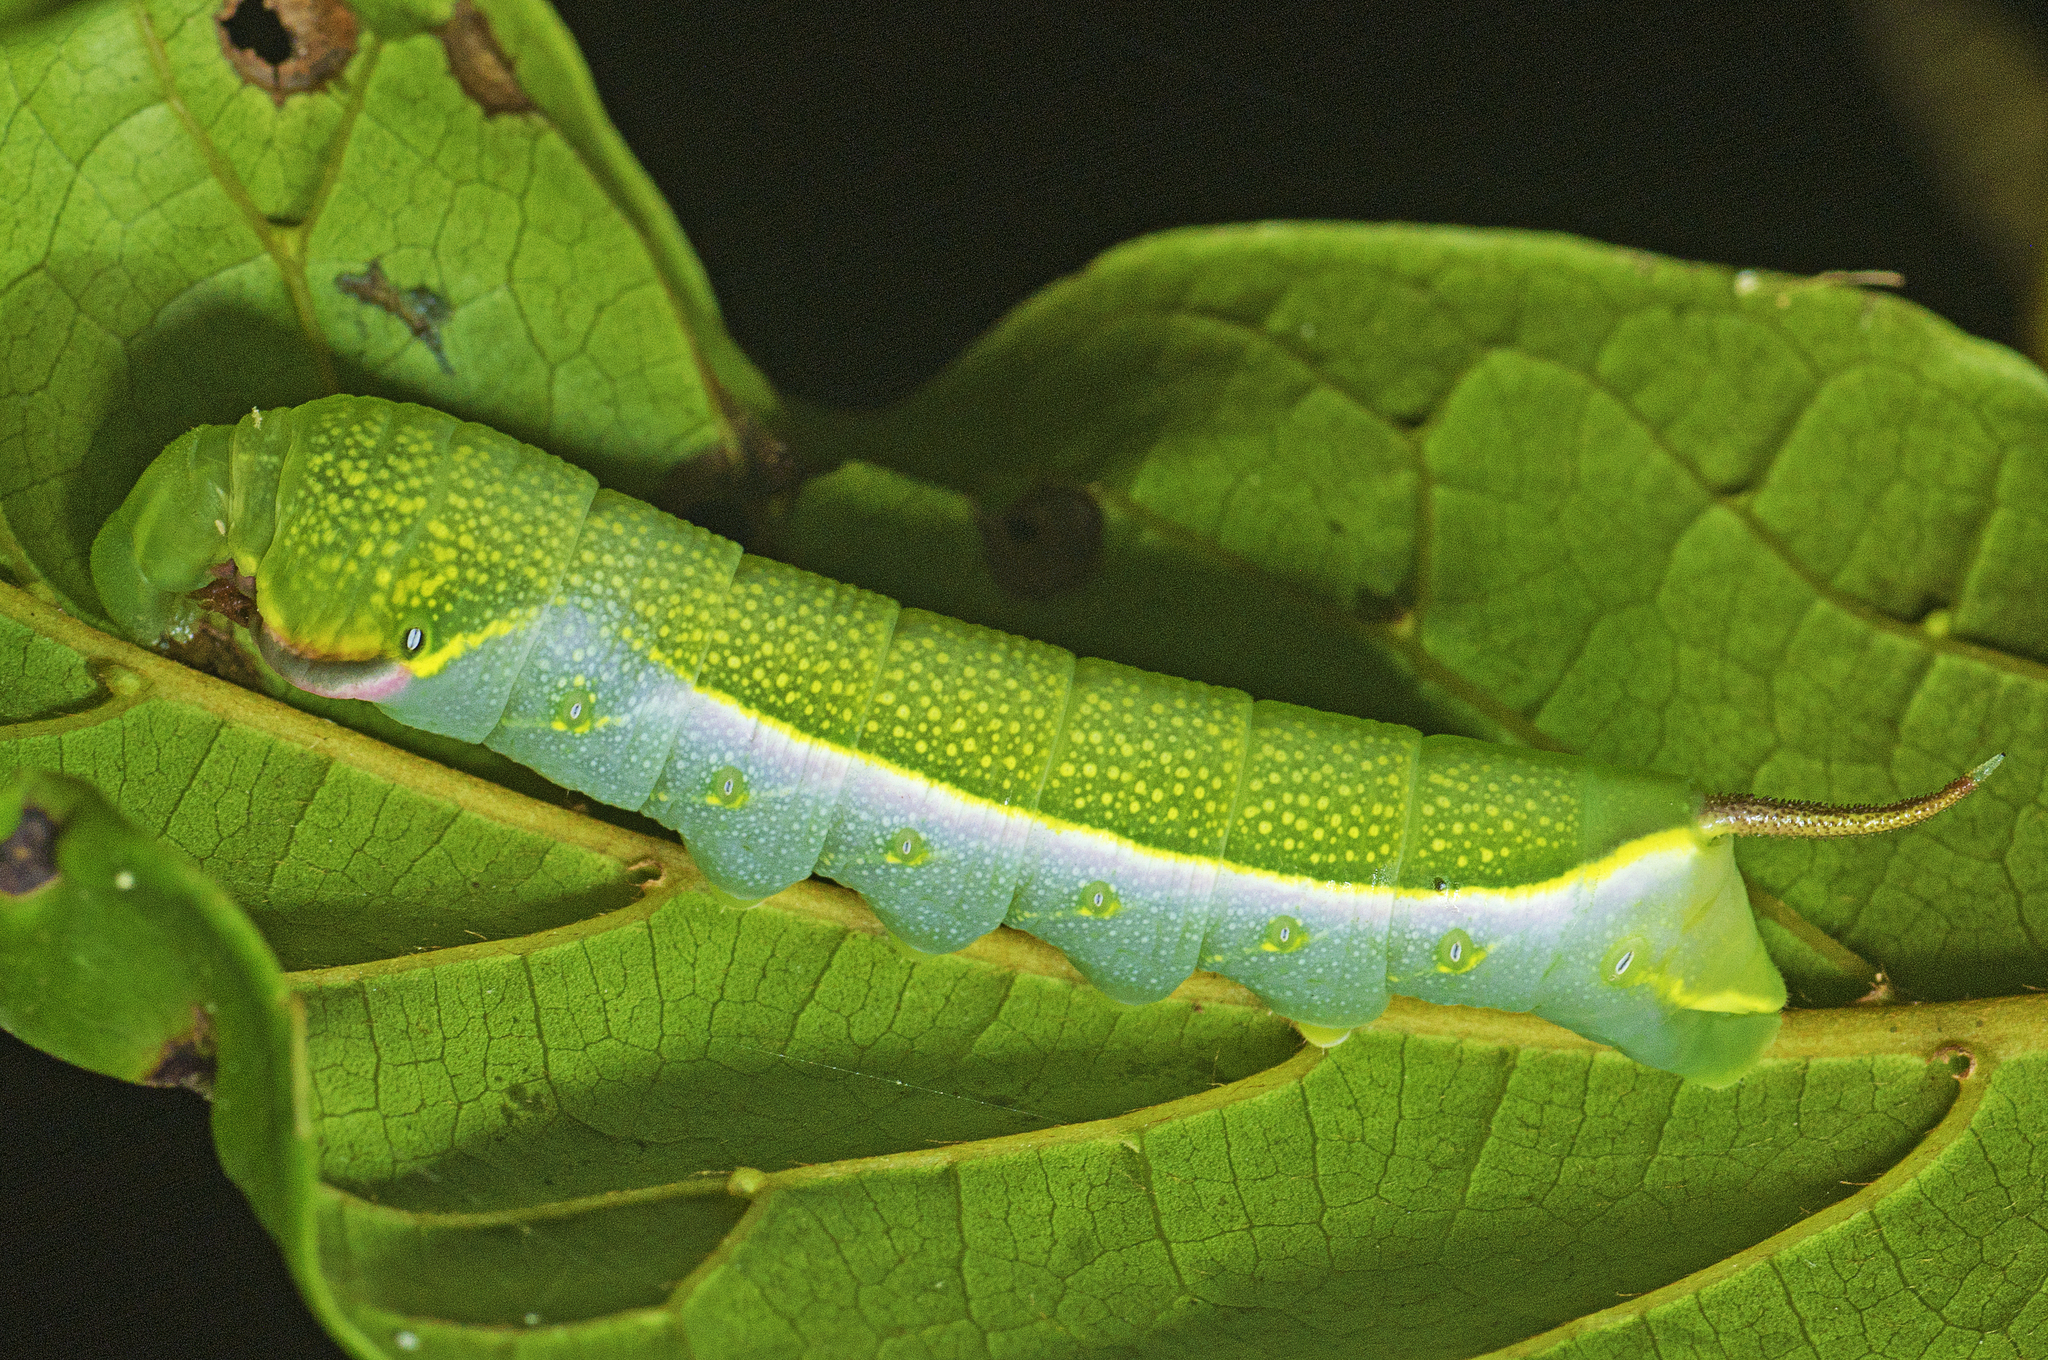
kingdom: Animalia
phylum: Arthropoda
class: Insecta
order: Lepidoptera
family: Sphingidae
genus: Acosmeryx
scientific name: Acosmeryx cinnamomea
